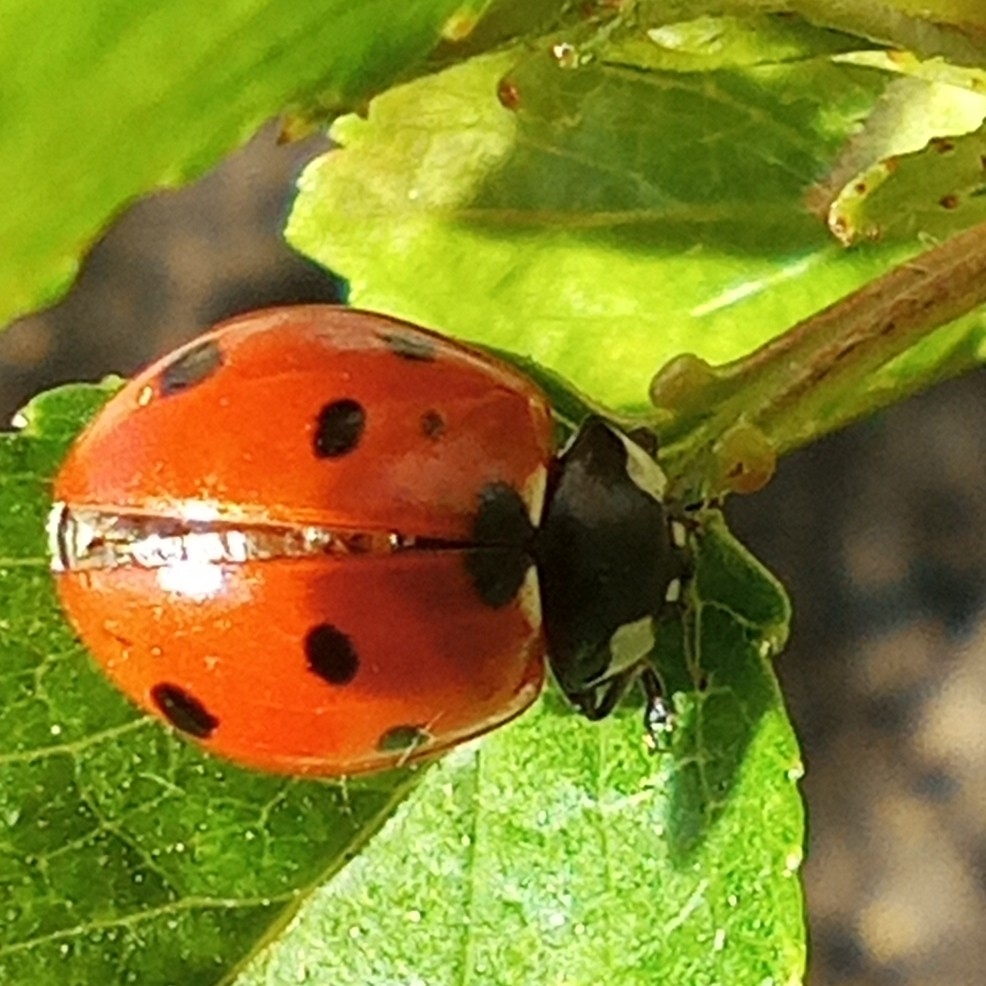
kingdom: Animalia
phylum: Arthropoda
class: Insecta
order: Coleoptera
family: Coccinellidae
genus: Coccinella
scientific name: Coccinella septempunctata
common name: Sevenspotted lady beetle
